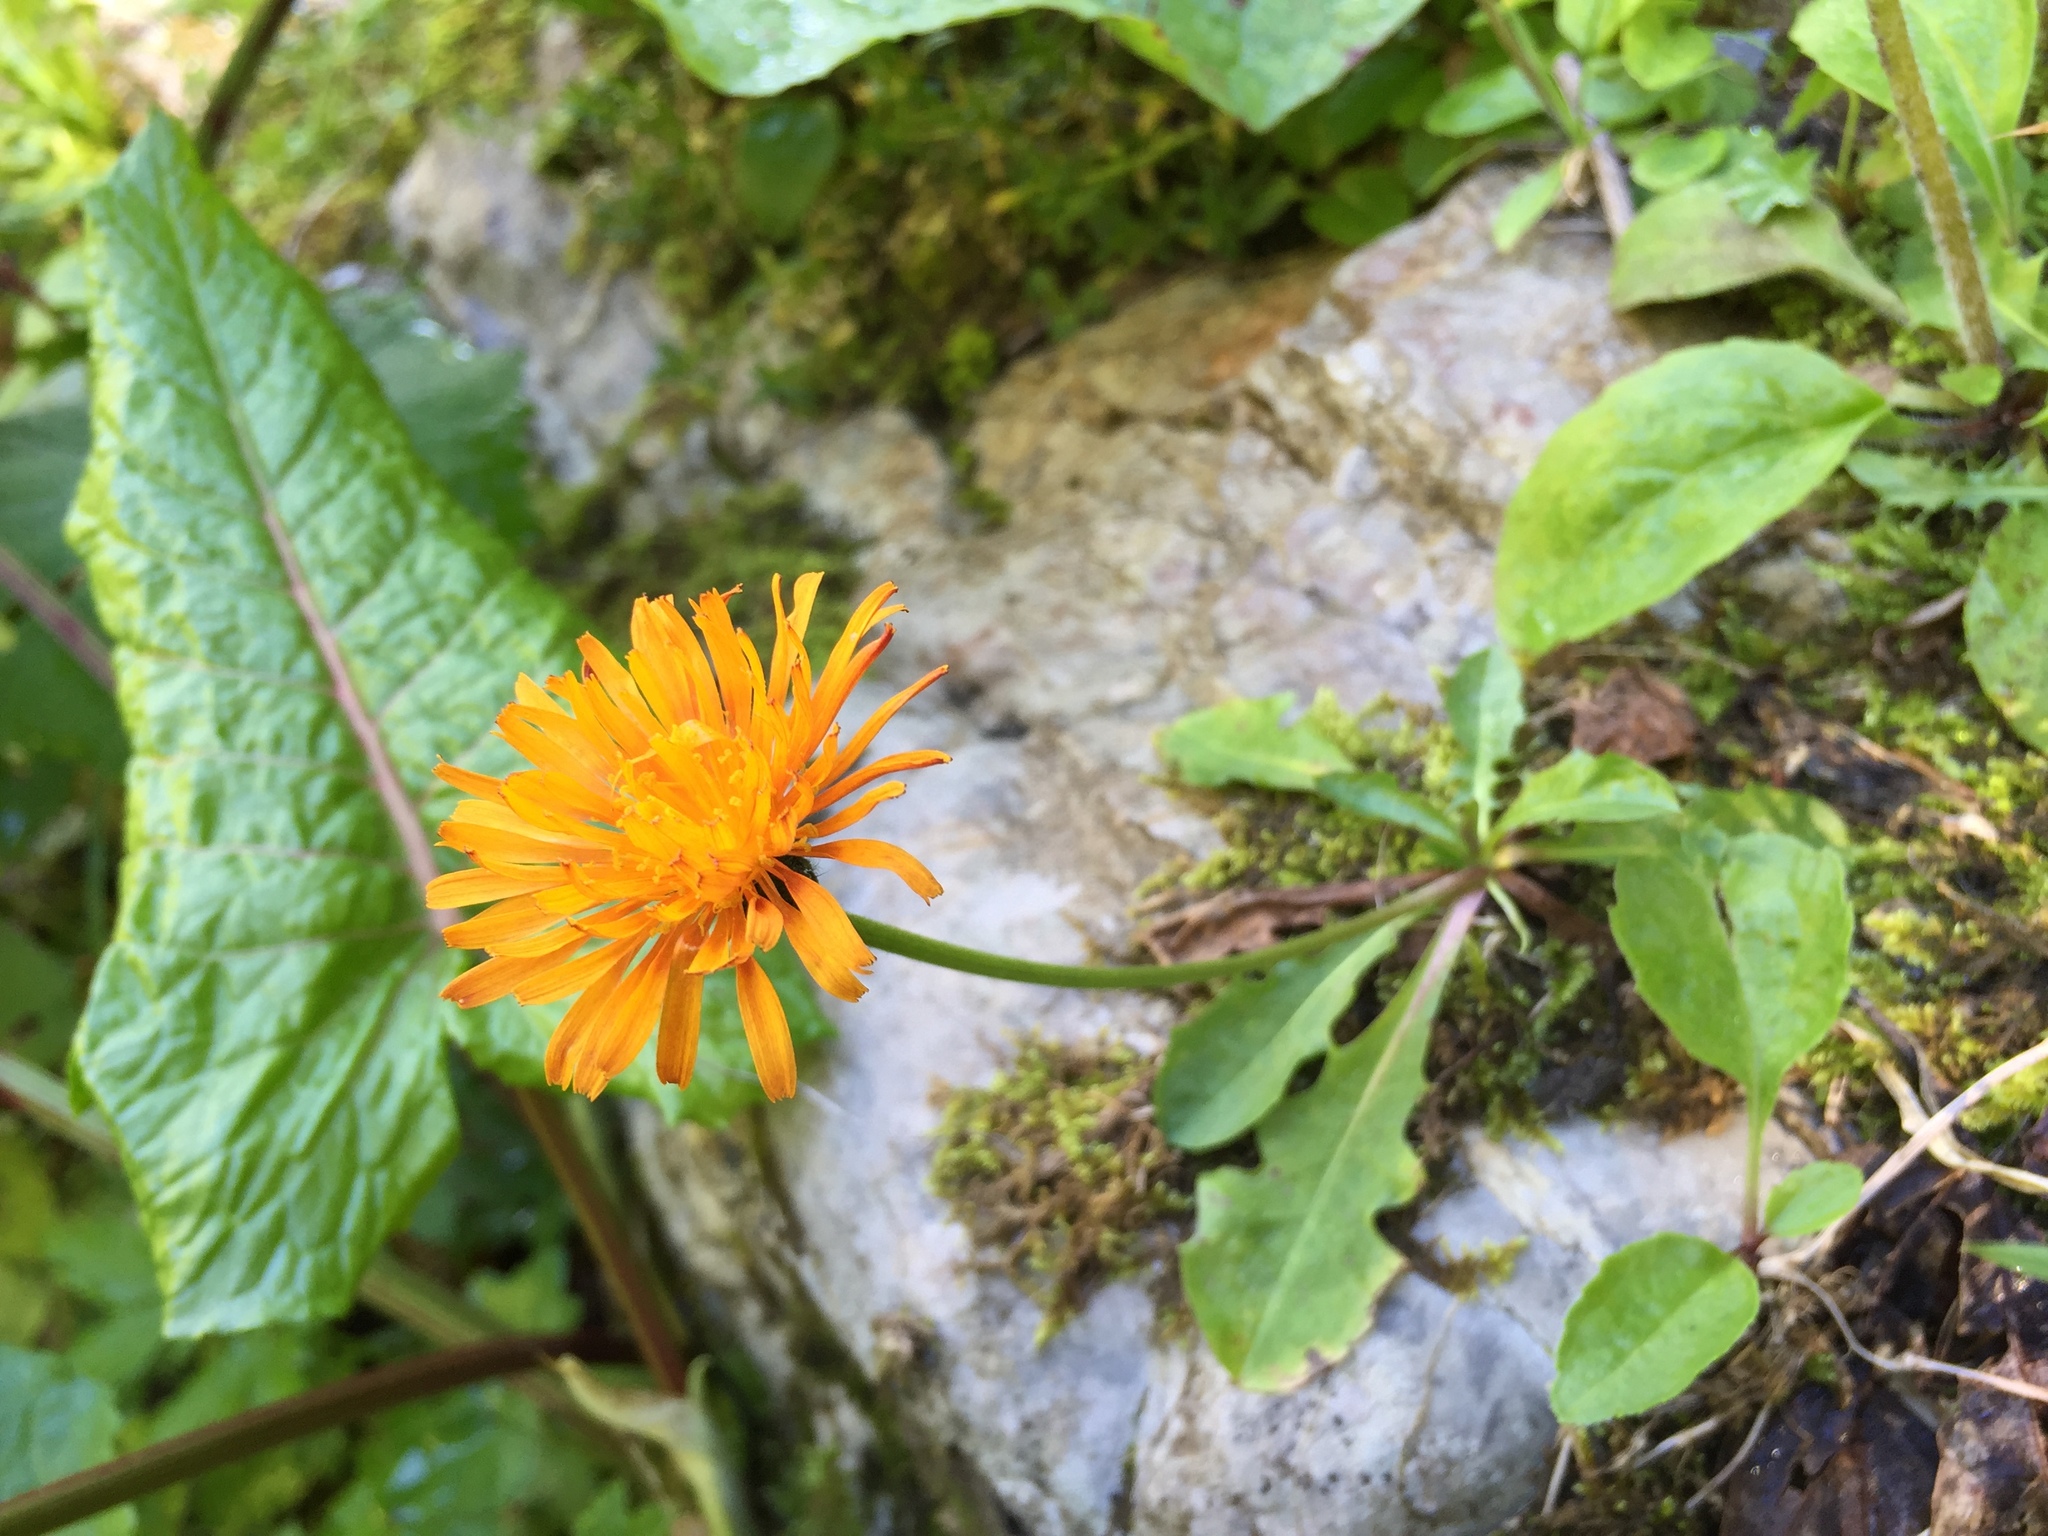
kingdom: Plantae
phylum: Tracheophyta
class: Magnoliopsida
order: Asterales
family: Asteraceae
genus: Crepis
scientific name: Crepis aurea
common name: Golden hawk's-beard
